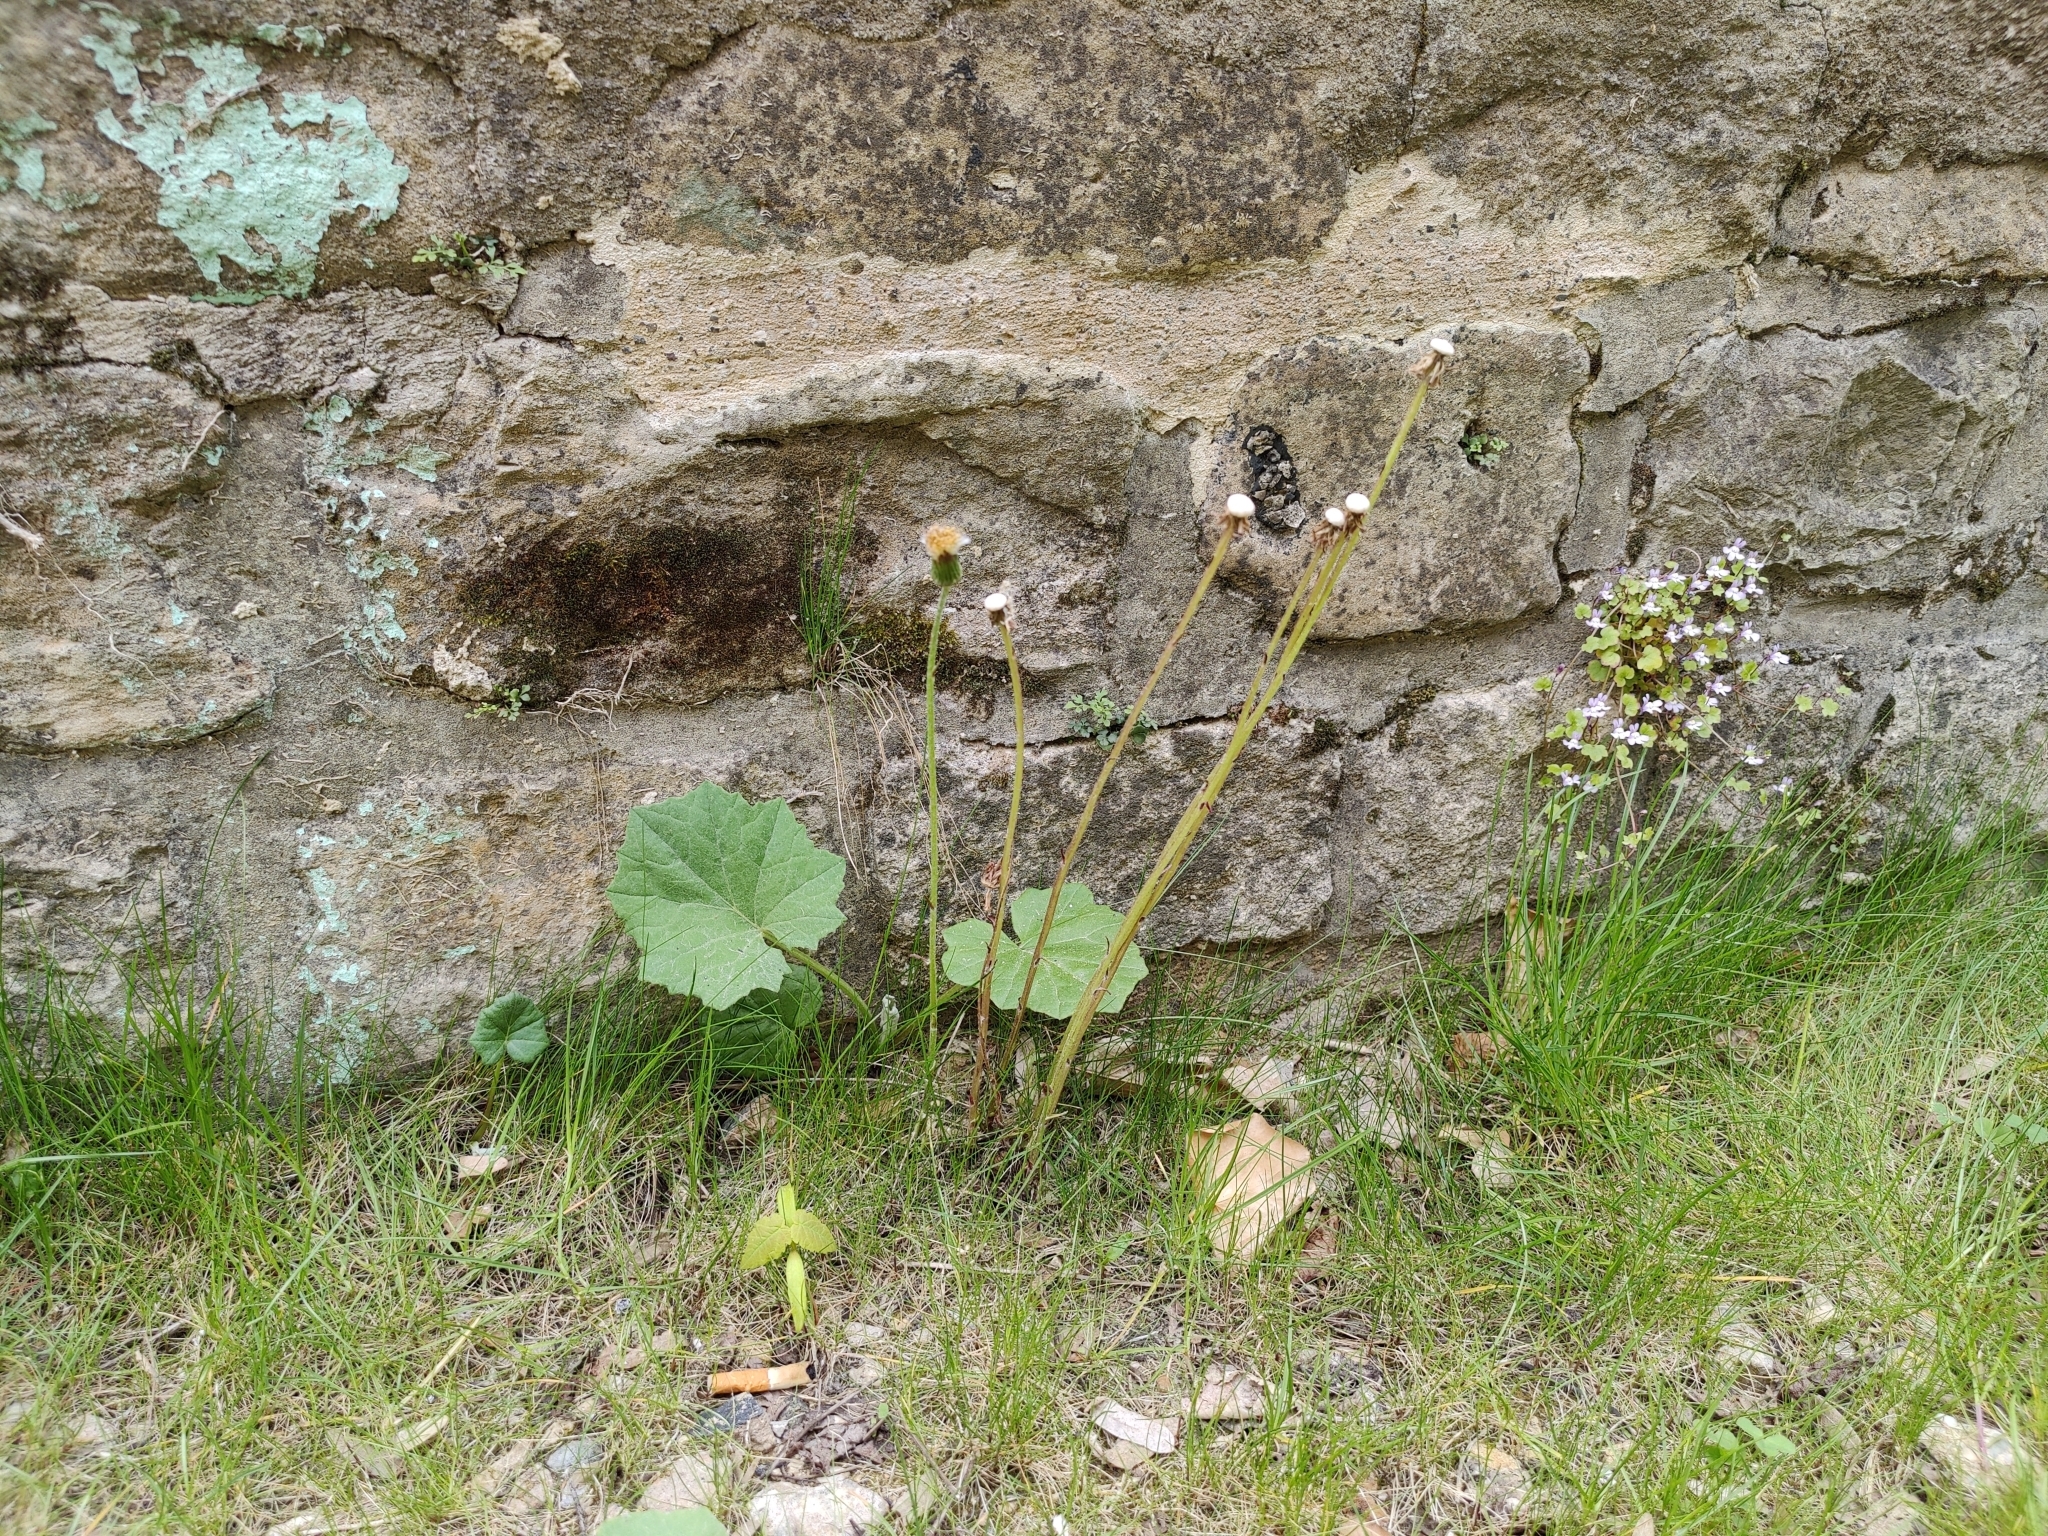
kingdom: Plantae
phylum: Tracheophyta
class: Magnoliopsida
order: Asterales
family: Asteraceae
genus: Tussilago
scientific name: Tussilago farfara
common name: Coltsfoot
